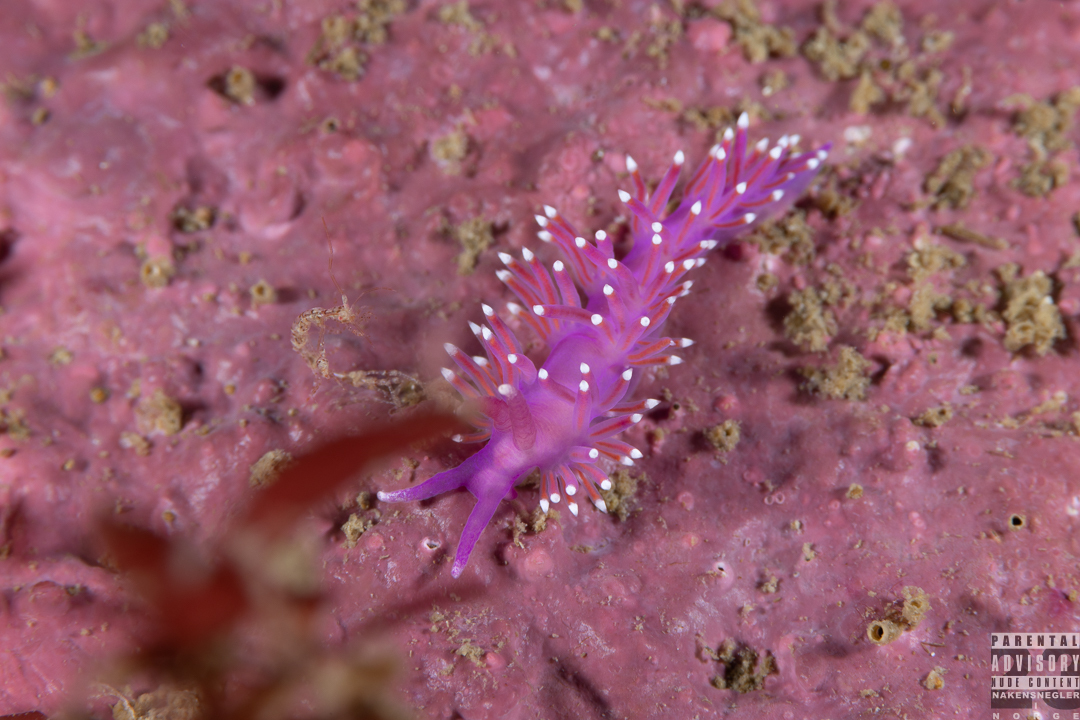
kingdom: Animalia
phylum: Mollusca
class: Gastropoda
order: Nudibranchia
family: Flabellinidae
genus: Edmundsella
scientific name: Edmundsella pedata
